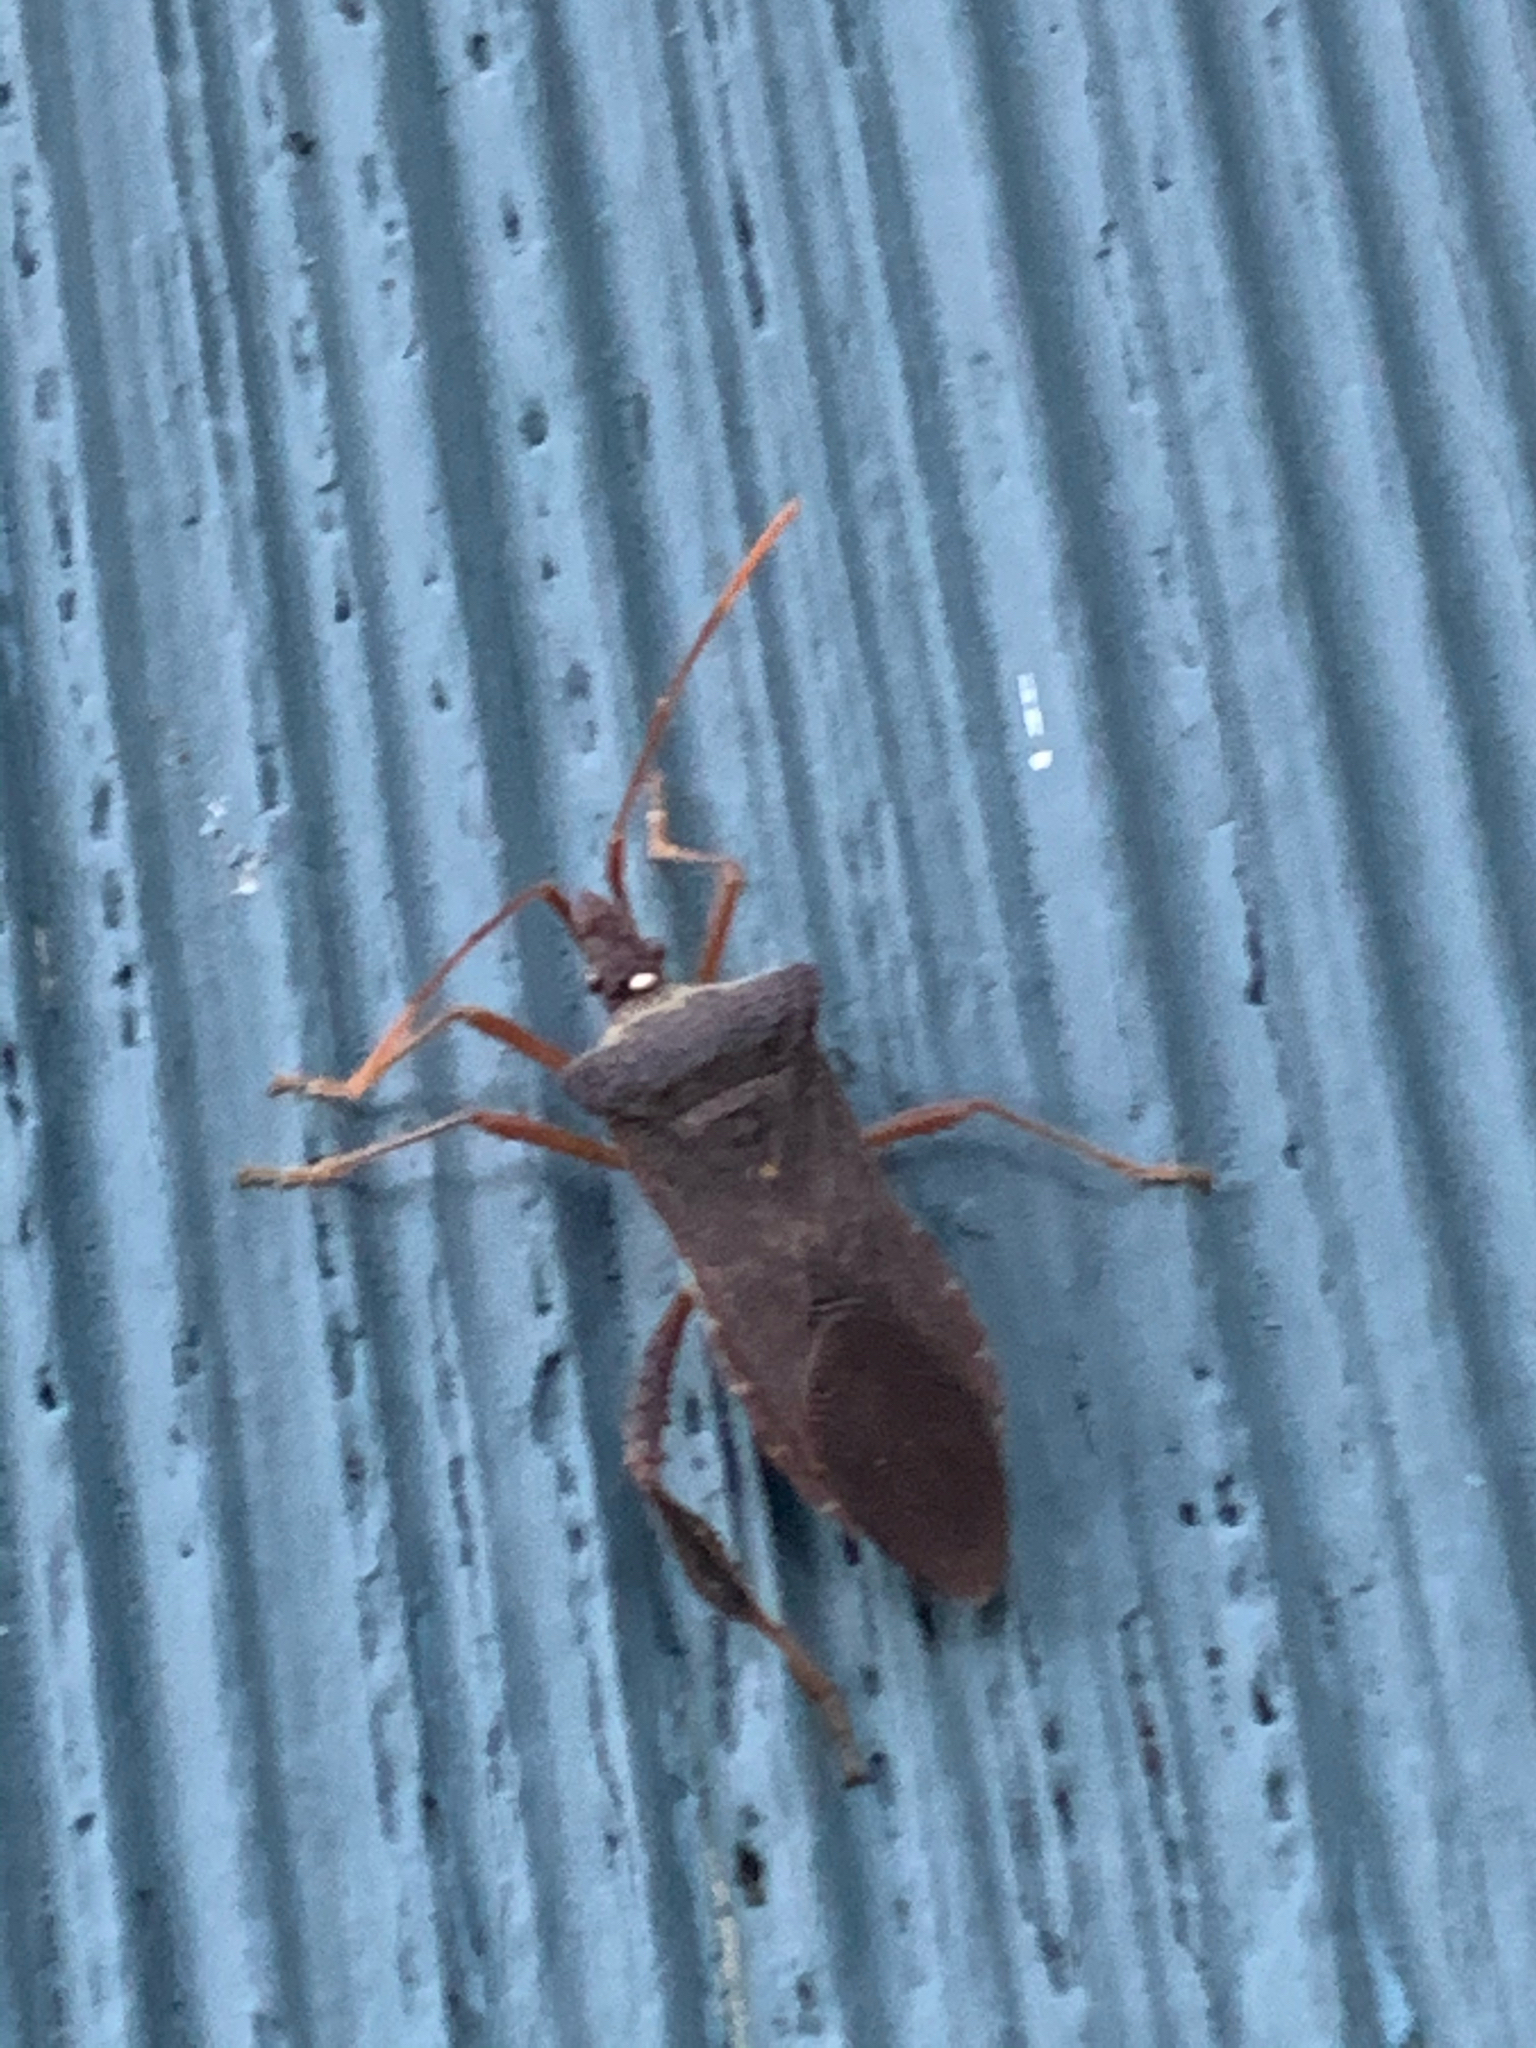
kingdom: Animalia
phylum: Arthropoda
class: Insecta
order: Hemiptera
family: Coreidae
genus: Leptoglossus
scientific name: Leptoglossus fulvicornis
